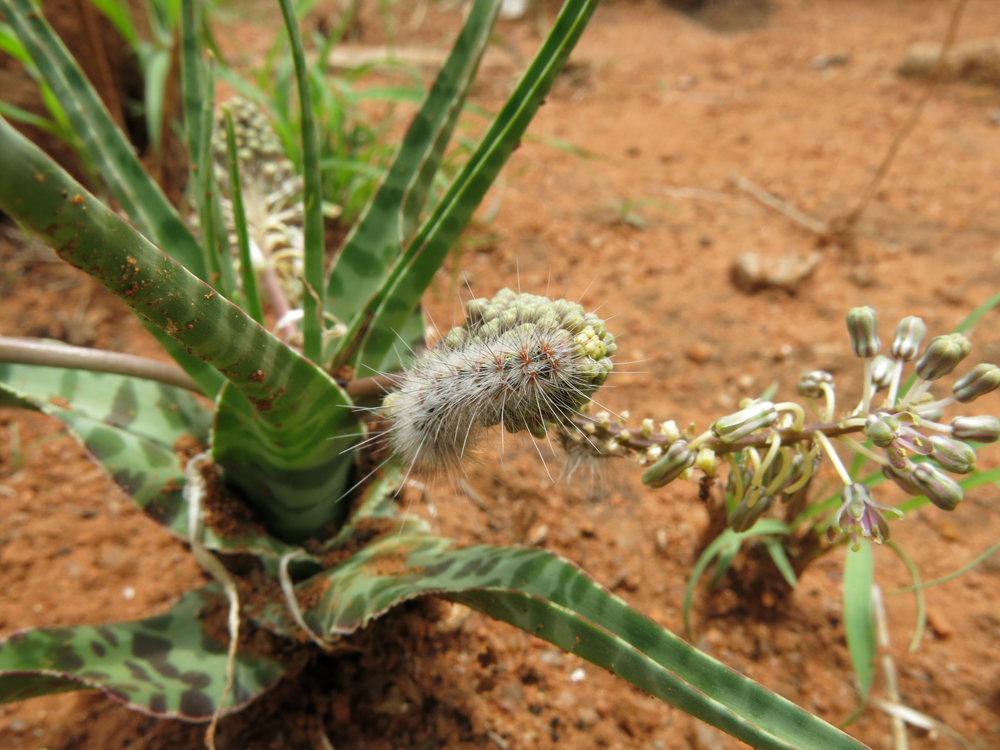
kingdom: Plantae
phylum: Tracheophyta
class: Liliopsida
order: Asparagales
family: Asparagaceae
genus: Ledebouria
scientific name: Ledebouria inquinata
